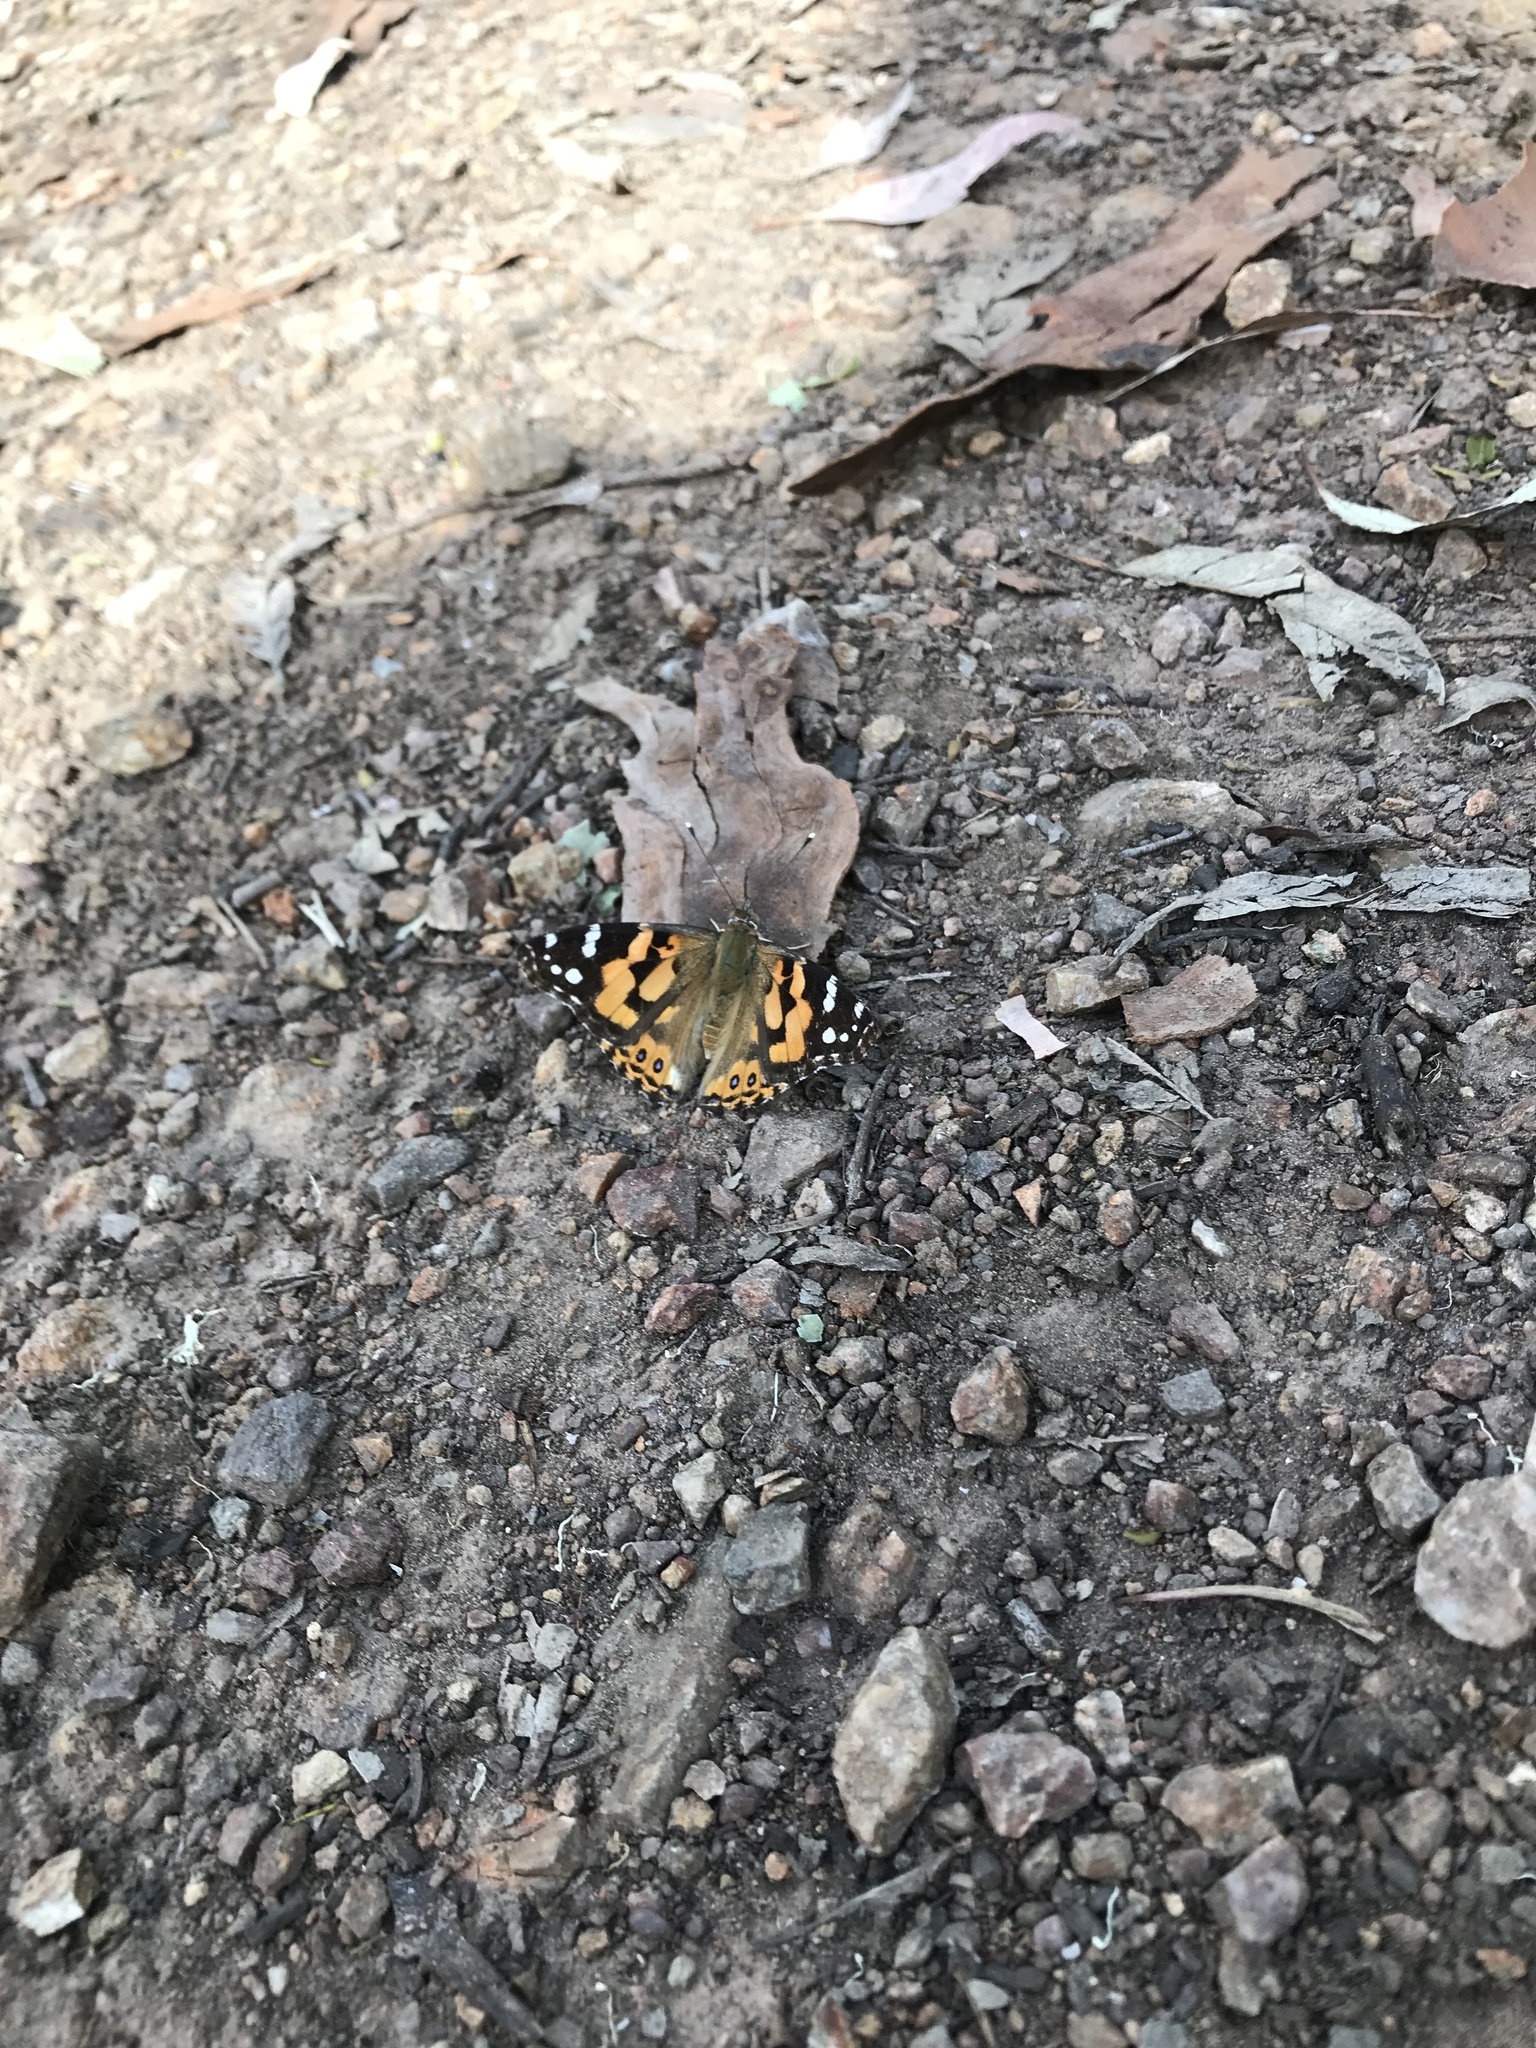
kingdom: Animalia
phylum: Arthropoda
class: Insecta
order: Lepidoptera
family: Nymphalidae
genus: Vanessa
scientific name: Vanessa kershawi
